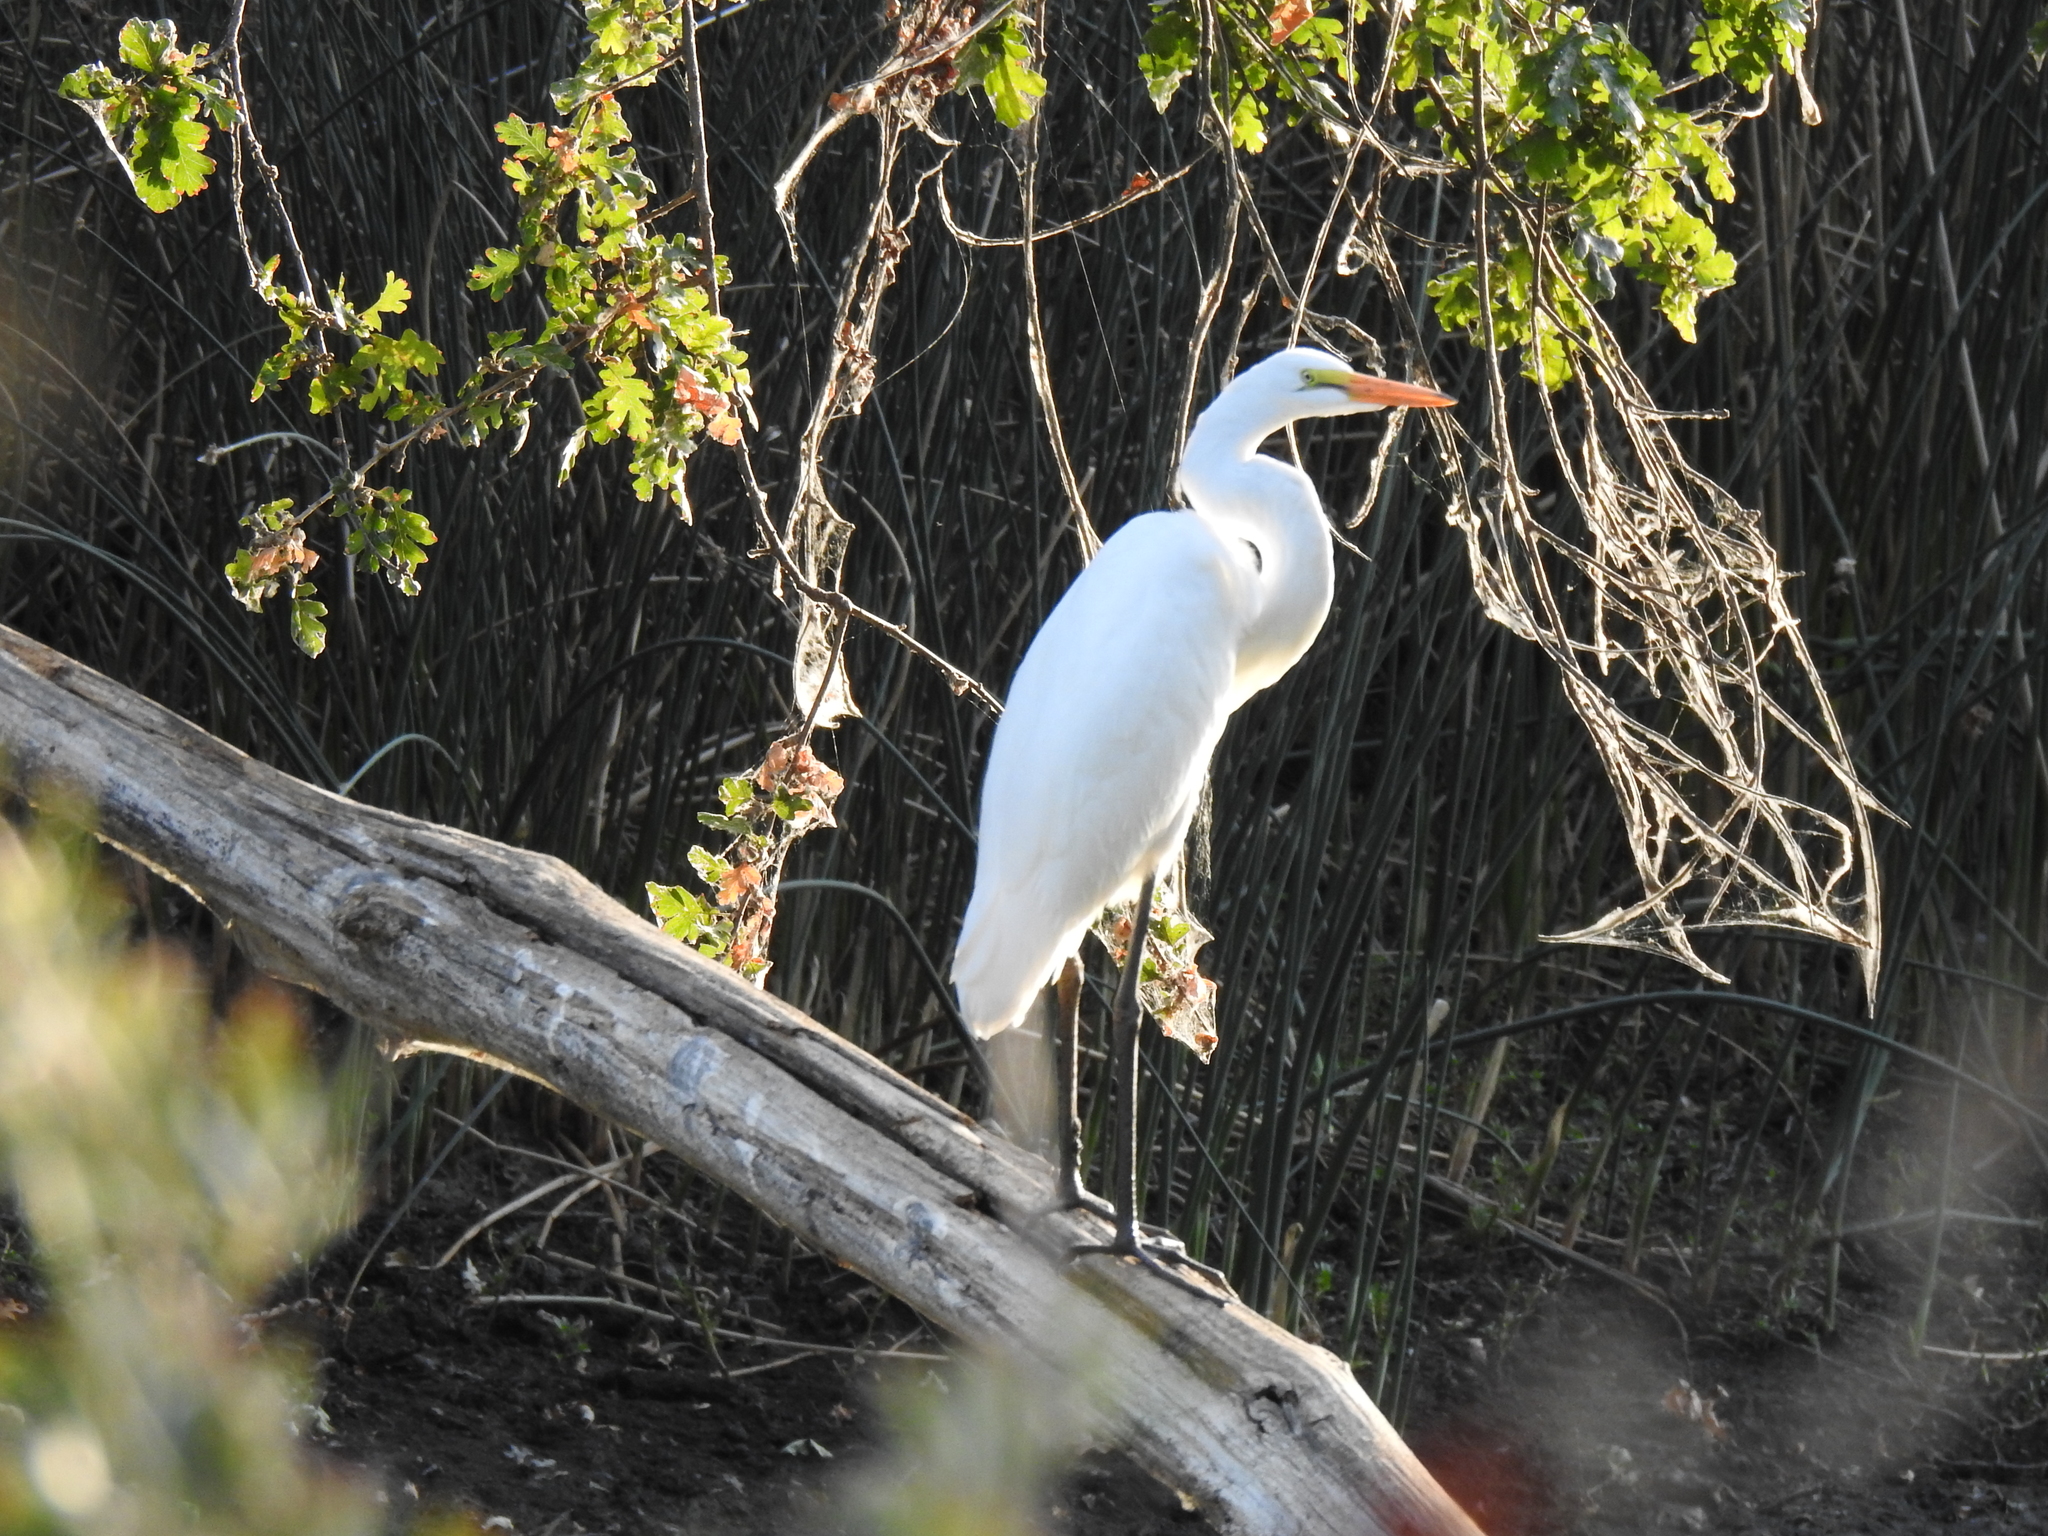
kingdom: Animalia
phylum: Chordata
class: Aves
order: Pelecaniformes
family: Ardeidae
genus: Ardea
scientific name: Ardea alba
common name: Great egret
